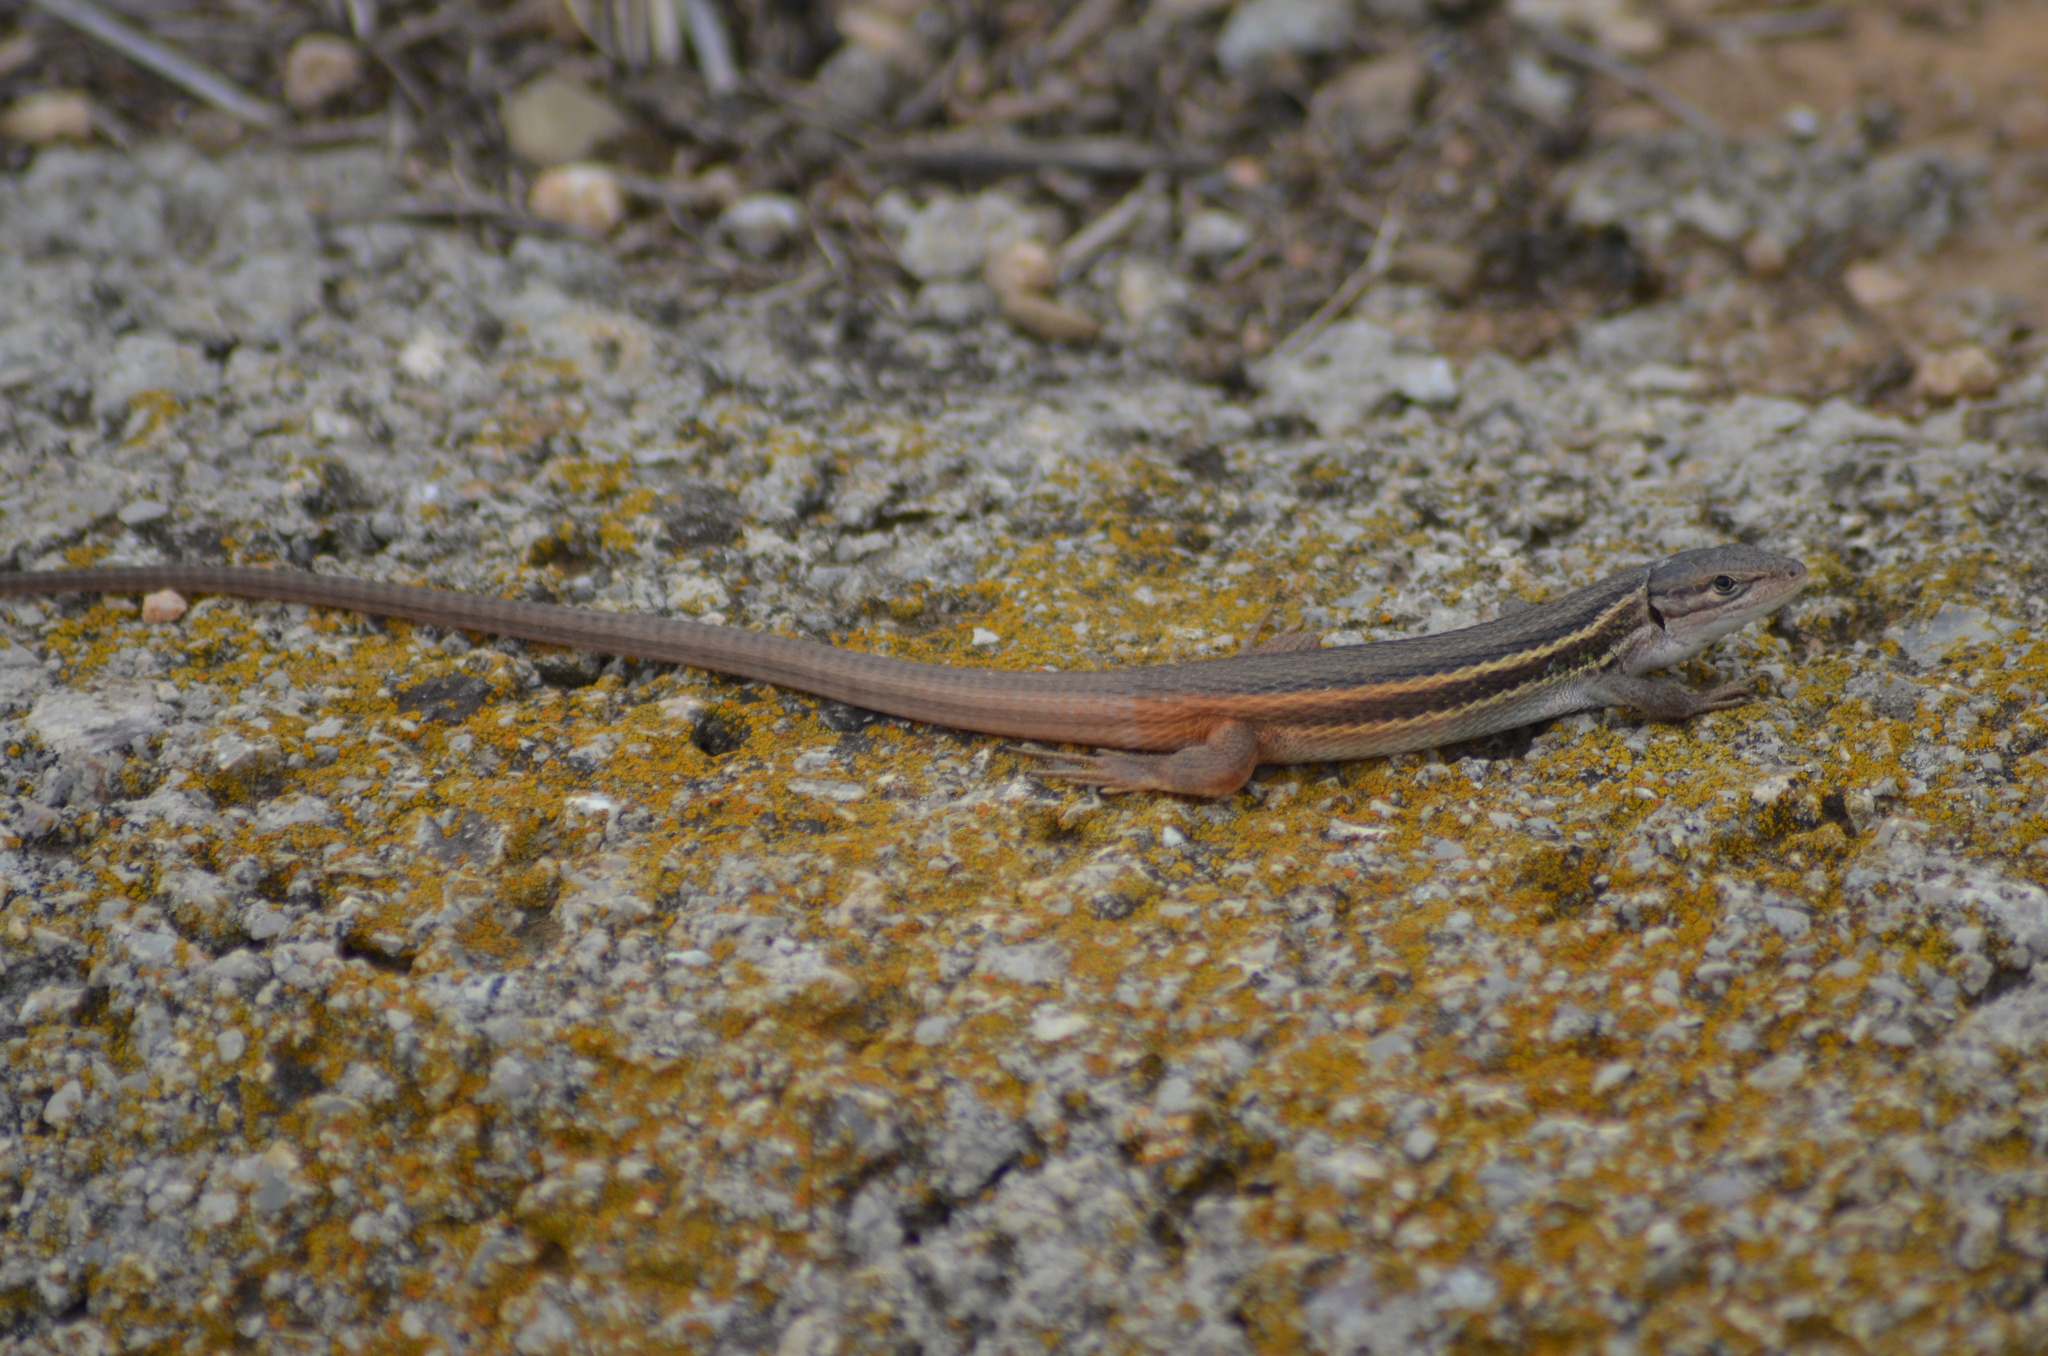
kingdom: Animalia
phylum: Chordata
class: Squamata
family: Lacertidae
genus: Psammodromus
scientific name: Psammodromus algirus
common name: Algerian psammodromus
